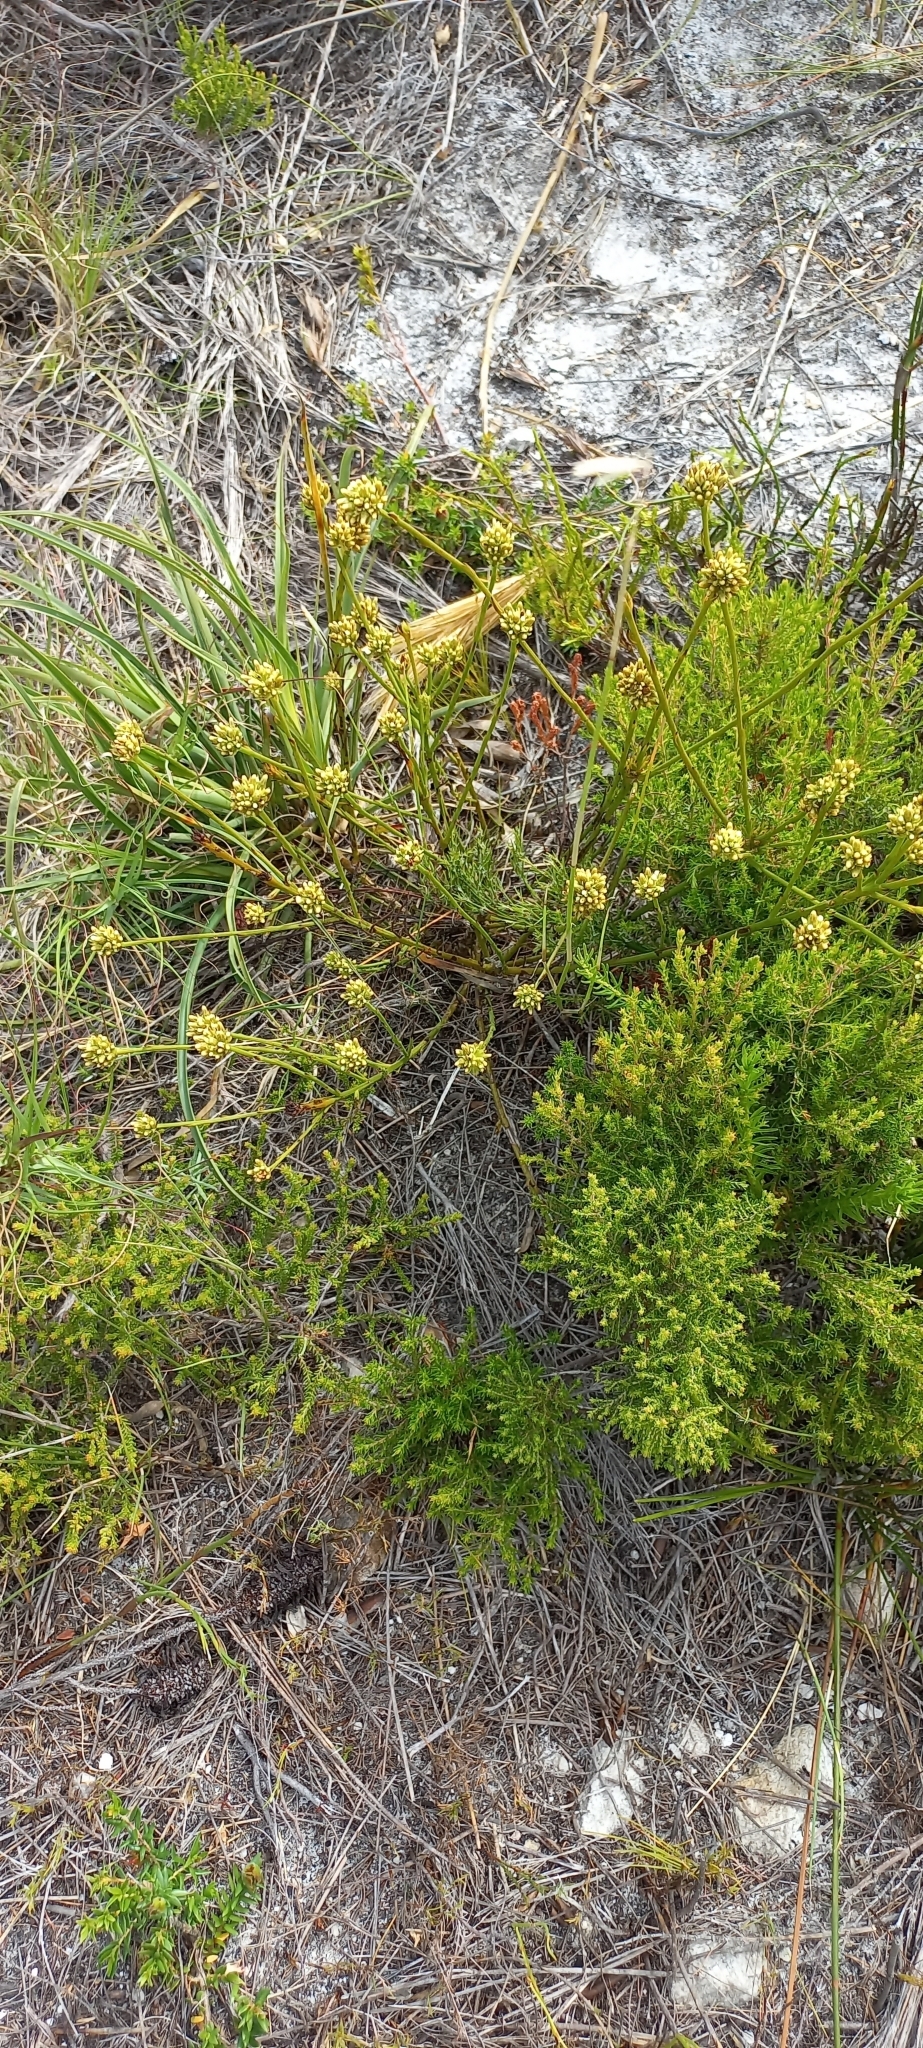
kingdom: Plantae
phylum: Tracheophyta
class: Magnoliopsida
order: Santalales
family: Thesiaceae
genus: Thesium
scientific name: Thesium spicatum
